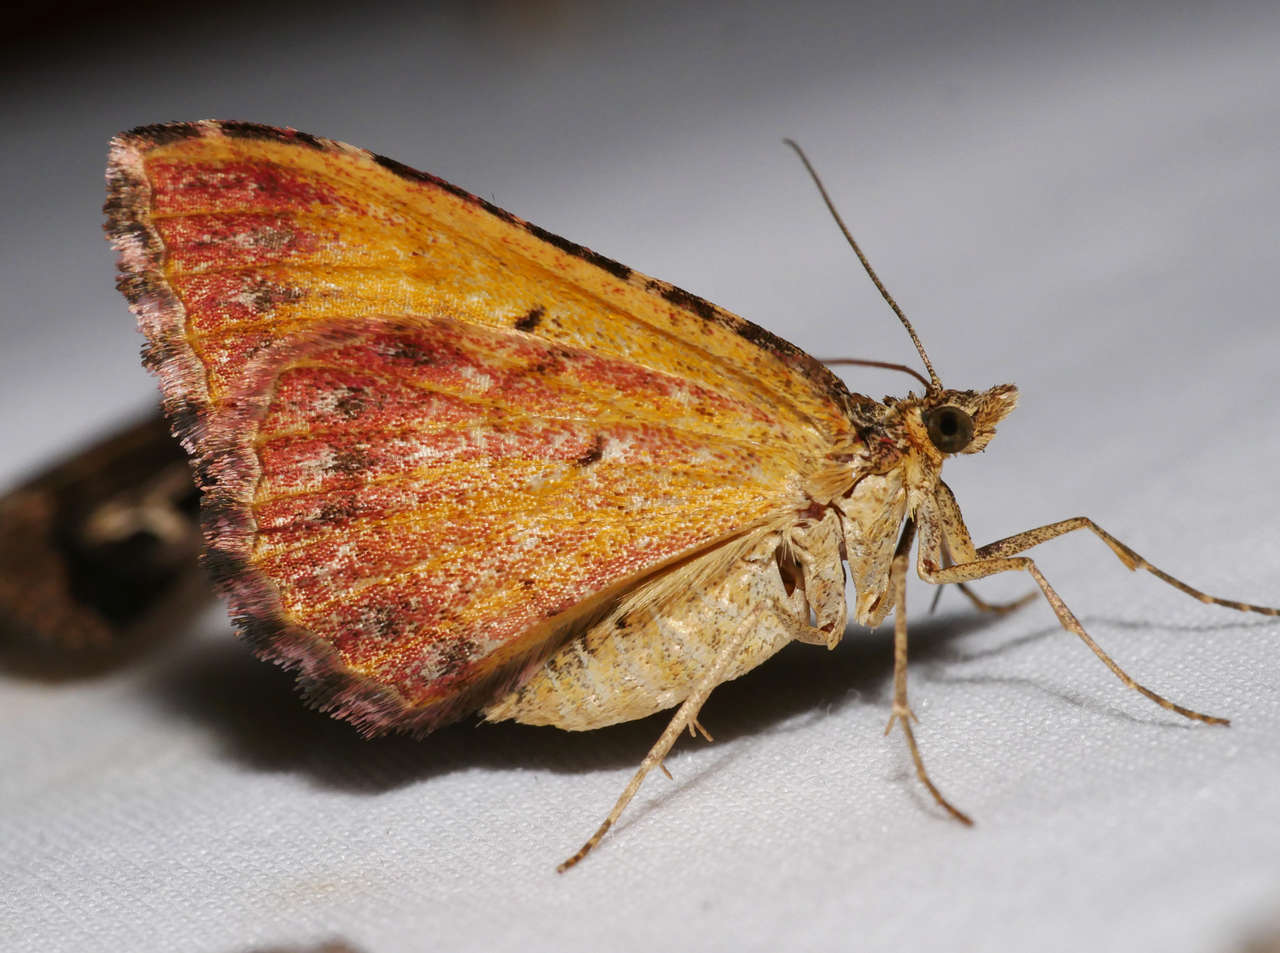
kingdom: Animalia
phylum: Arthropoda
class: Insecta
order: Lepidoptera
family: Geometridae
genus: Chrysolarentia
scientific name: Chrysolarentia vicissata
